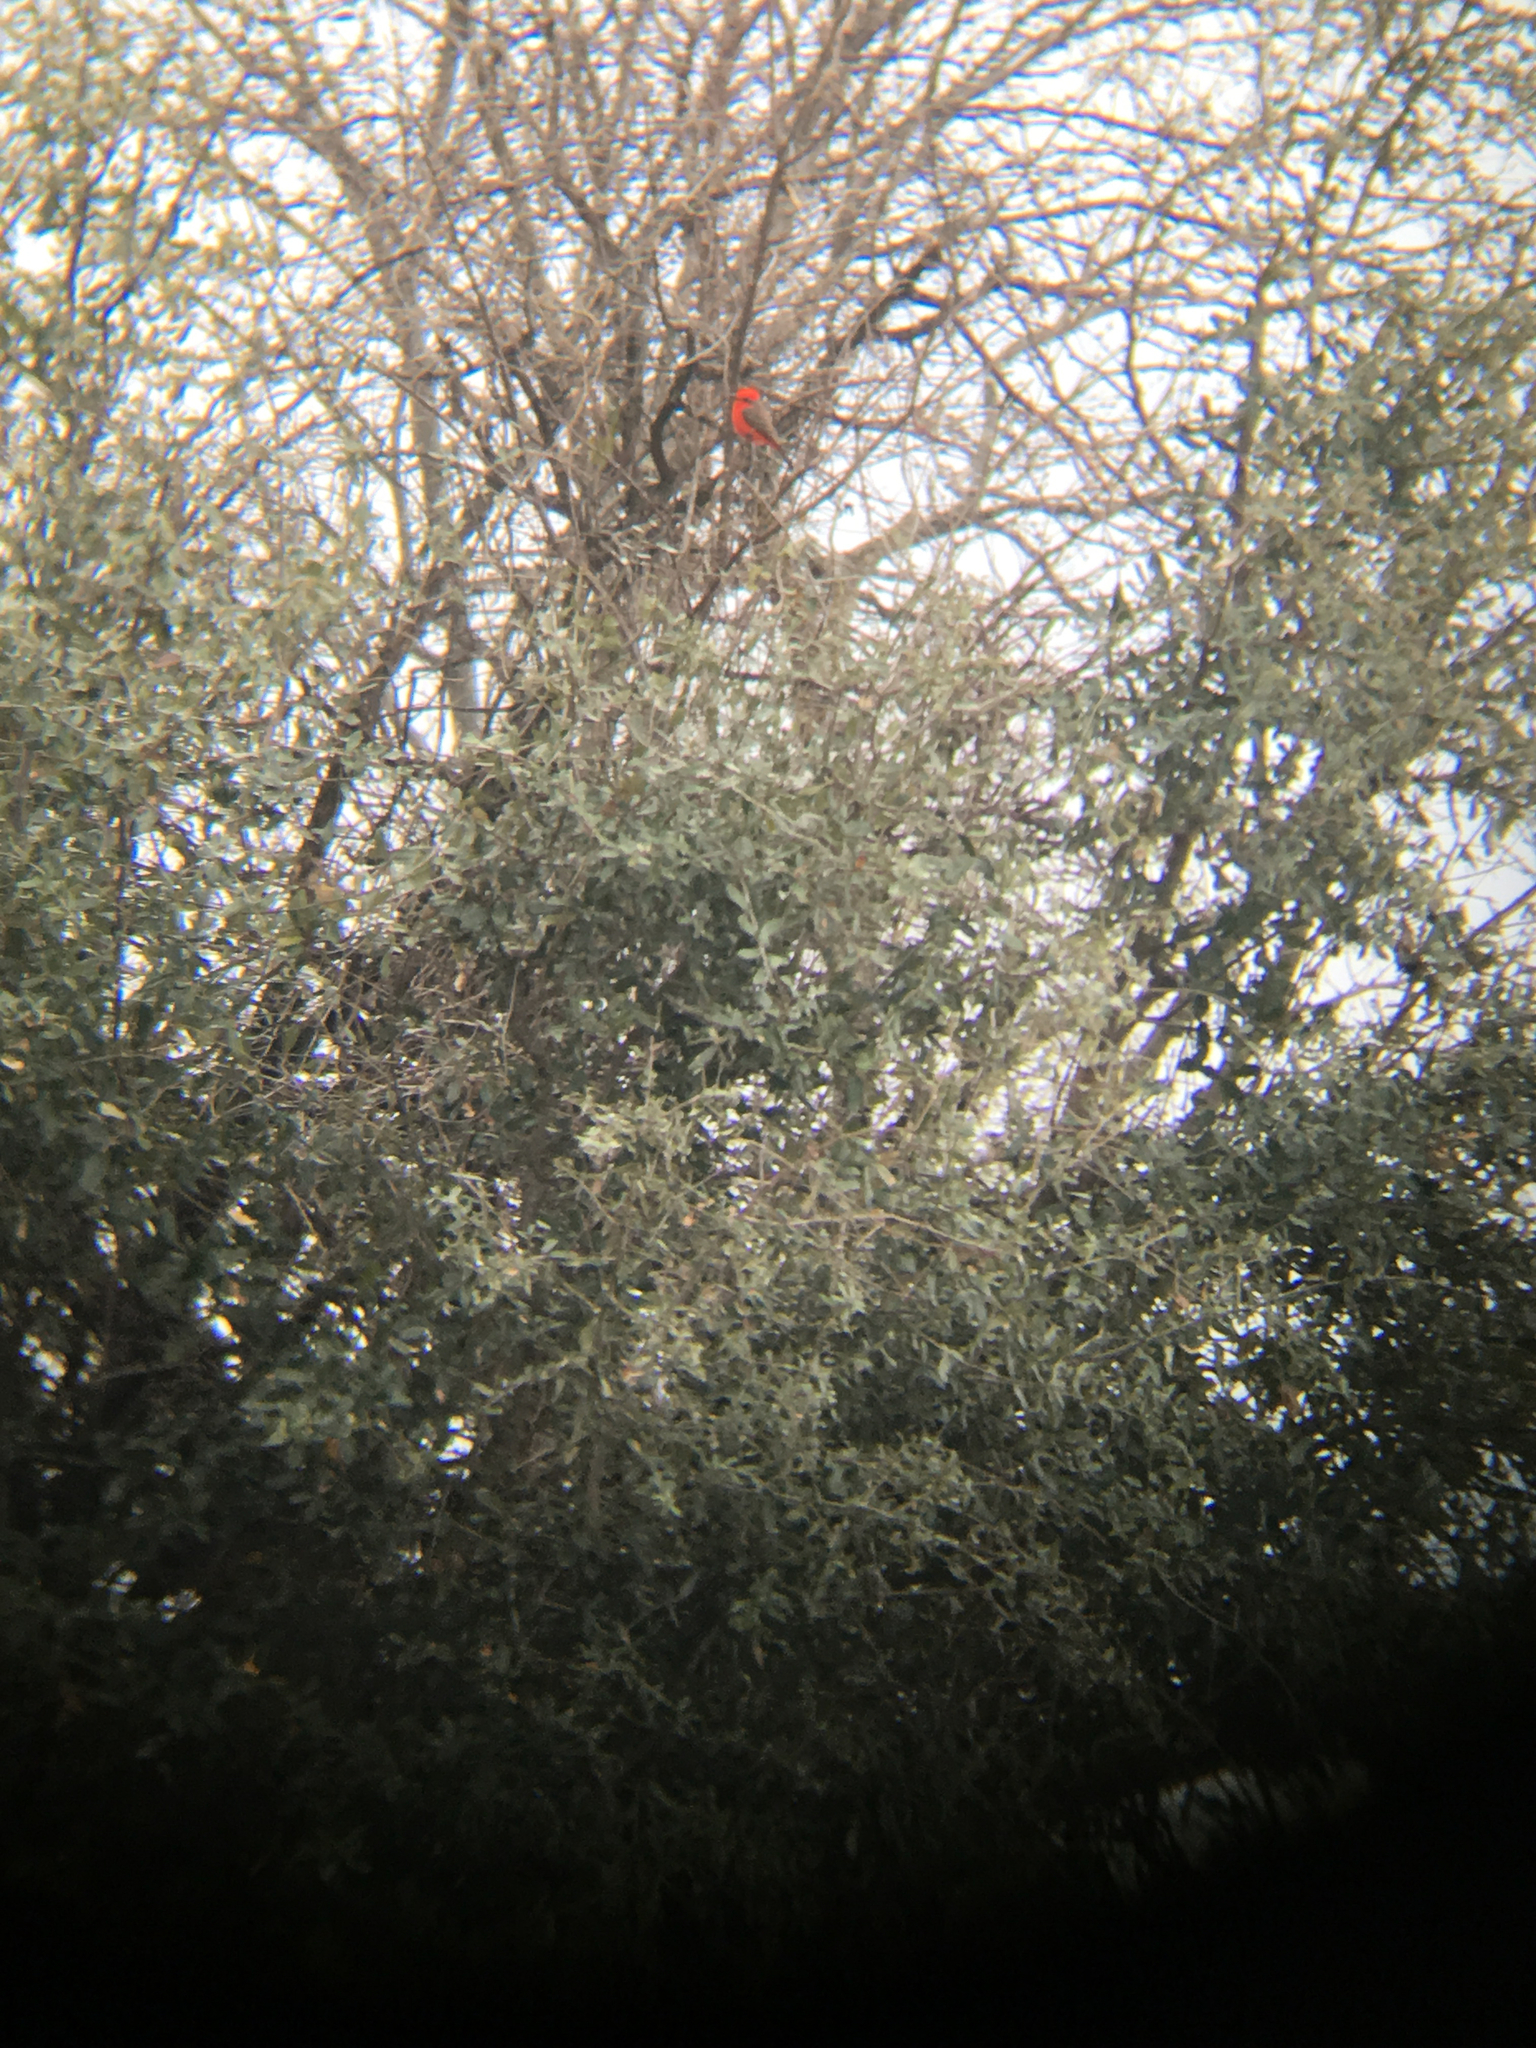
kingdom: Animalia
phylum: Chordata
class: Aves
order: Passeriformes
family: Tyrannidae
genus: Pyrocephalus
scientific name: Pyrocephalus rubinus
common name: Vermilion flycatcher
